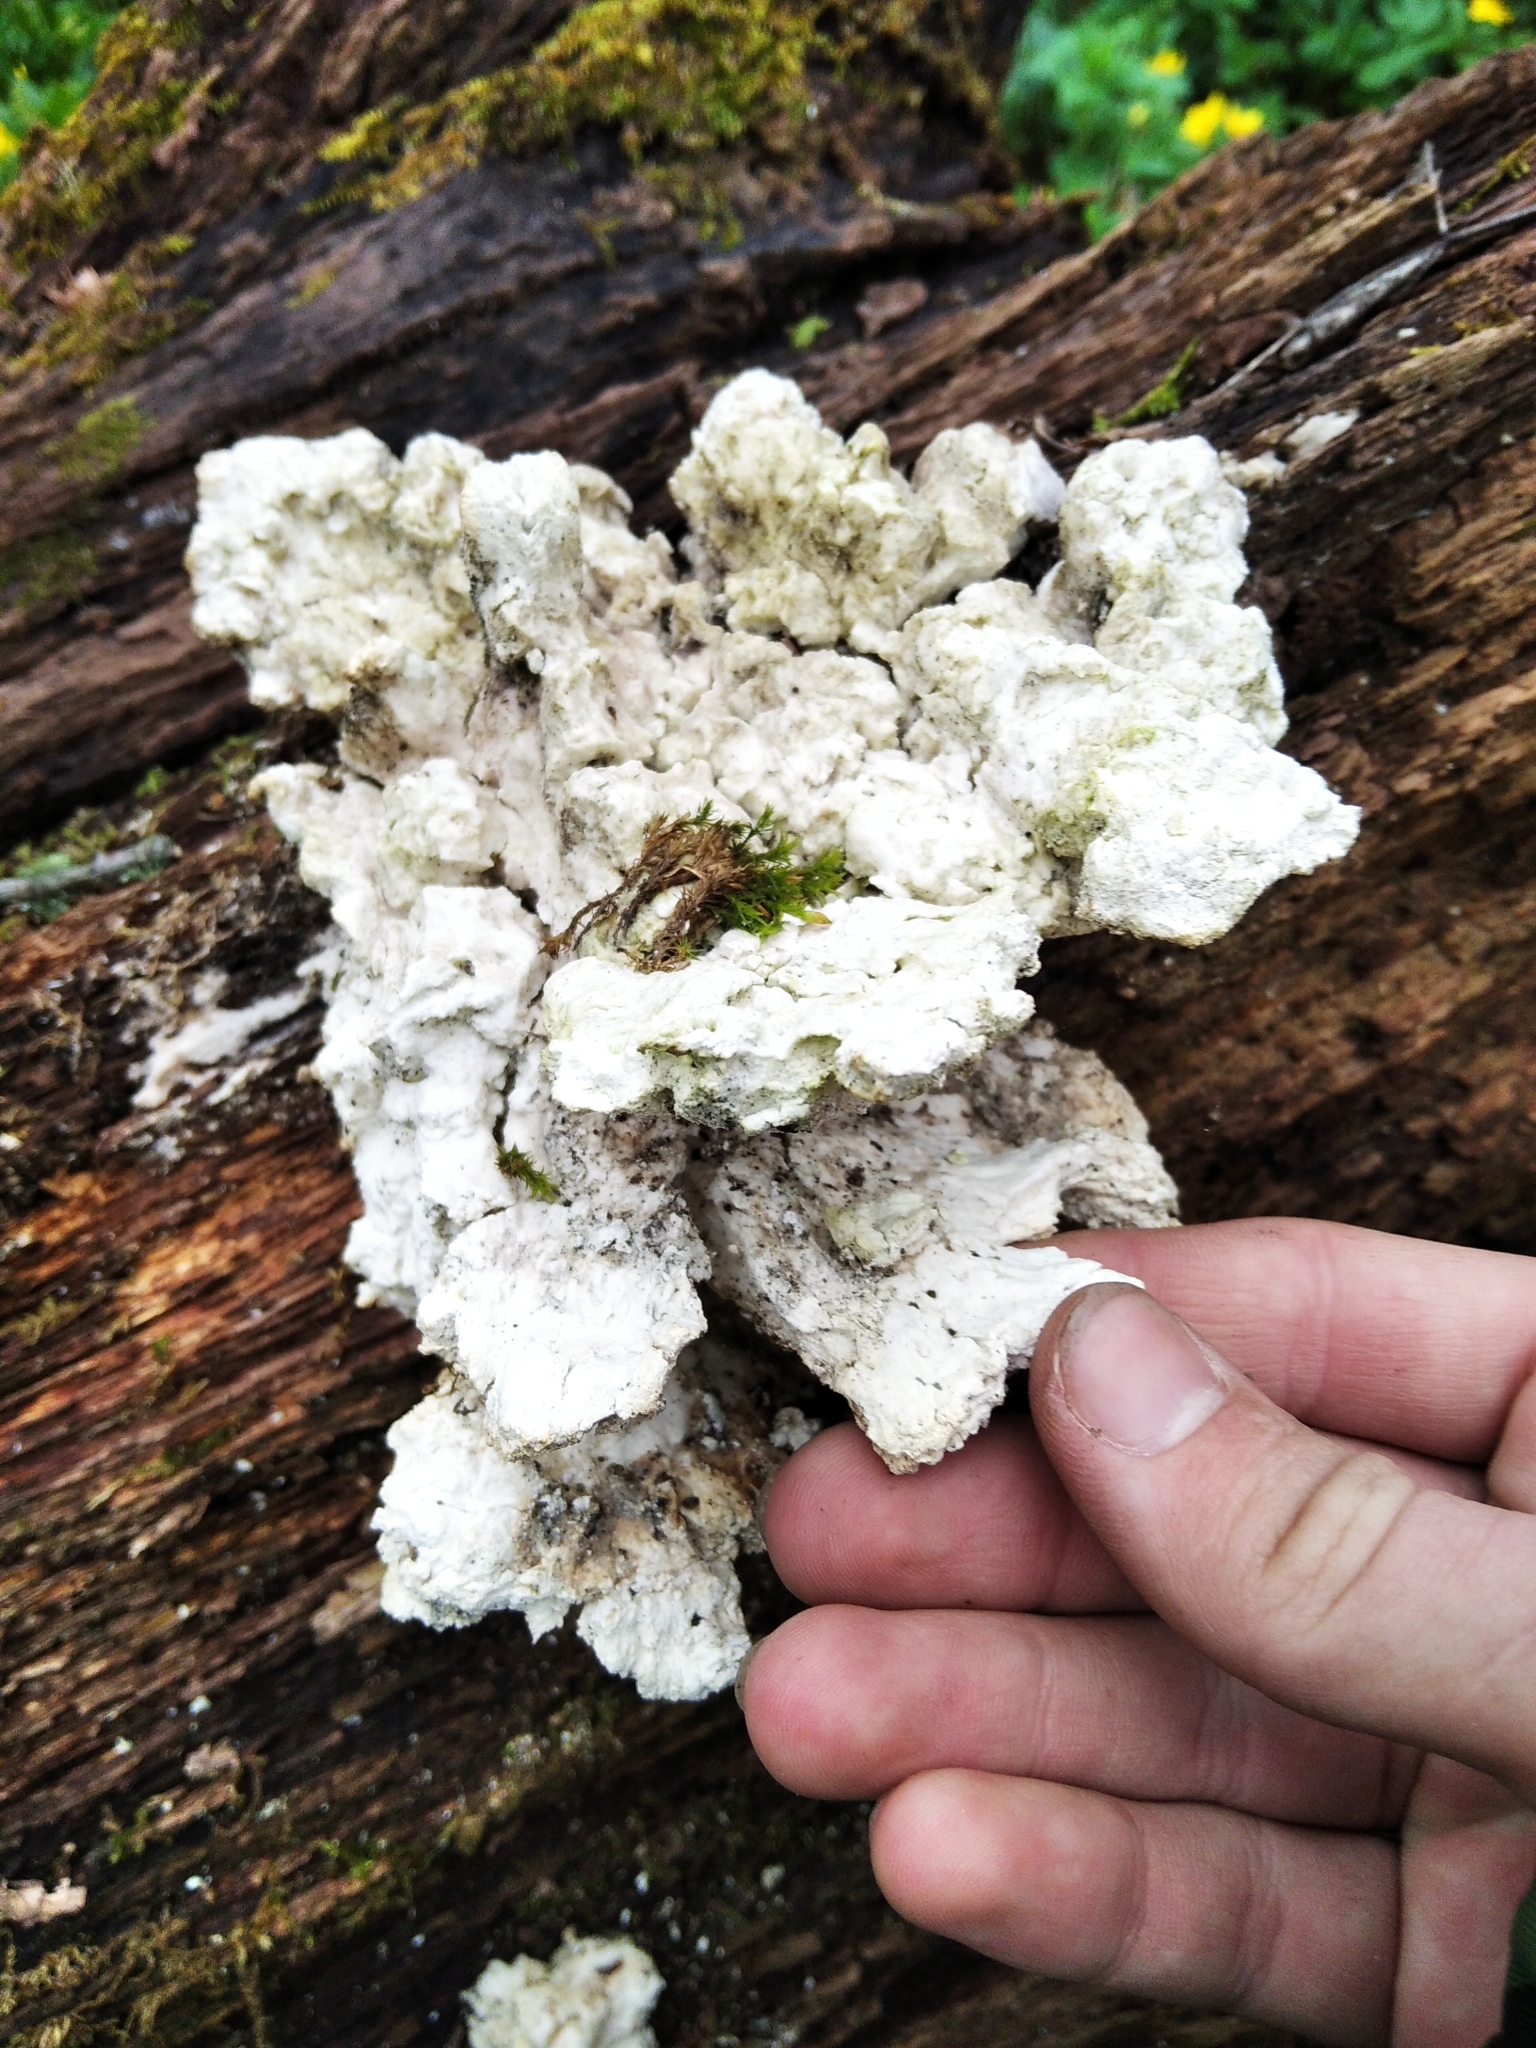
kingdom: Fungi
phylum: Basidiomycota
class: Agaricomycetes
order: Polyporales
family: Laetiporaceae
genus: Laetiporus
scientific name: Laetiporus sulphureus
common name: Chicken of the woods
